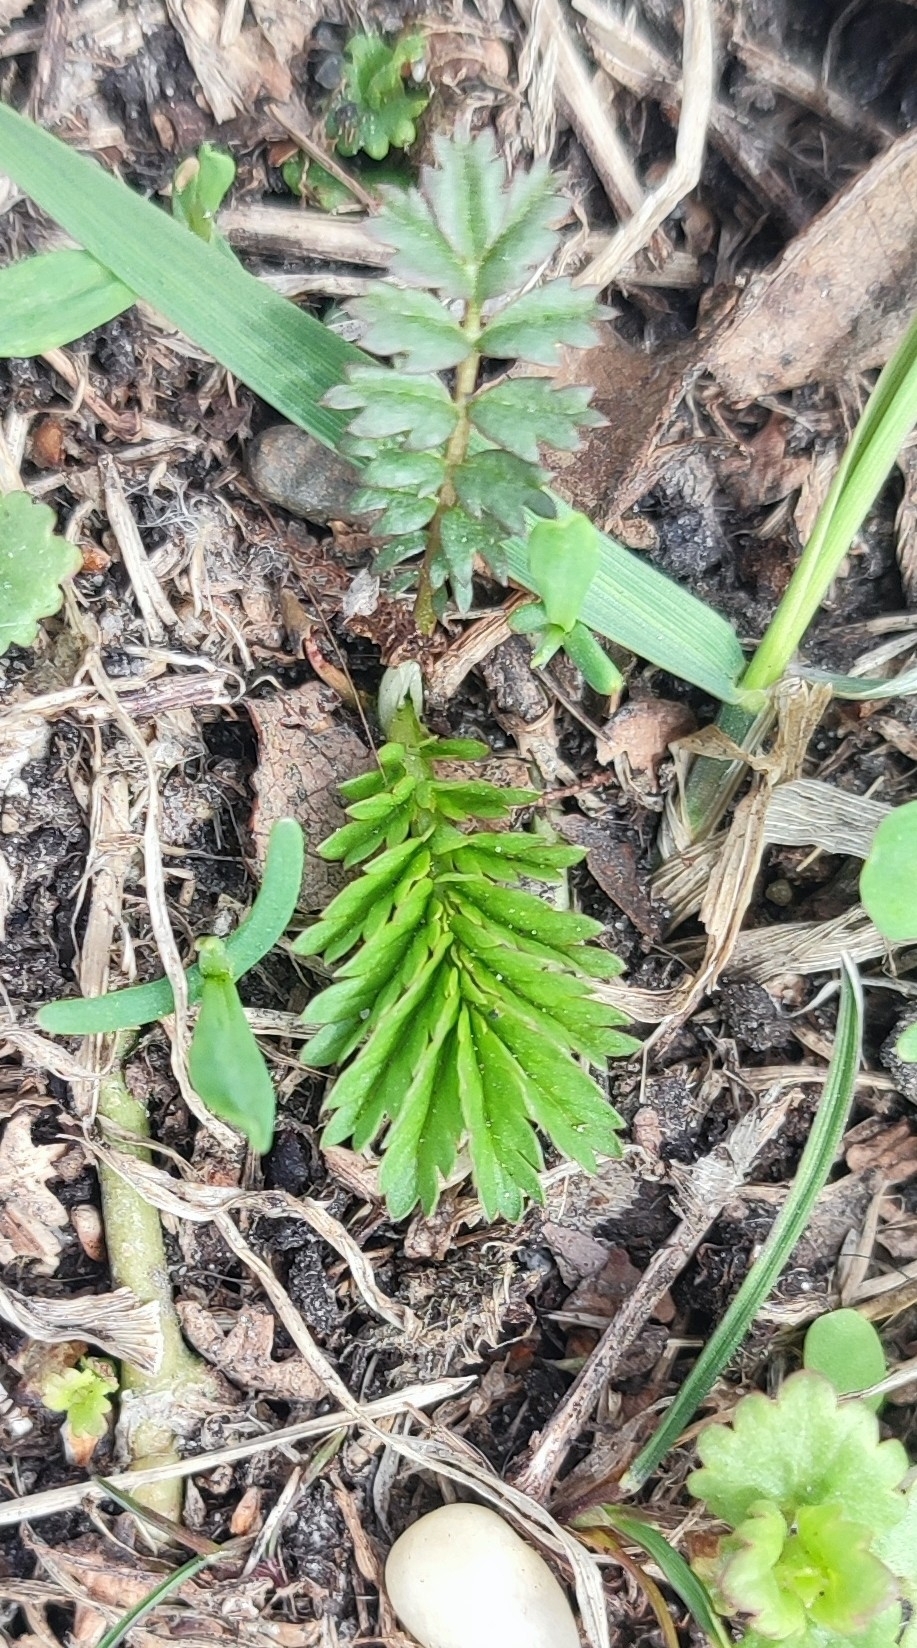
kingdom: Plantae
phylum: Tracheophyta
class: Magnoliopsida
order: Rosales
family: Rosaceae
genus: Argentina
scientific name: Argentina anserina
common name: Common silverweed
